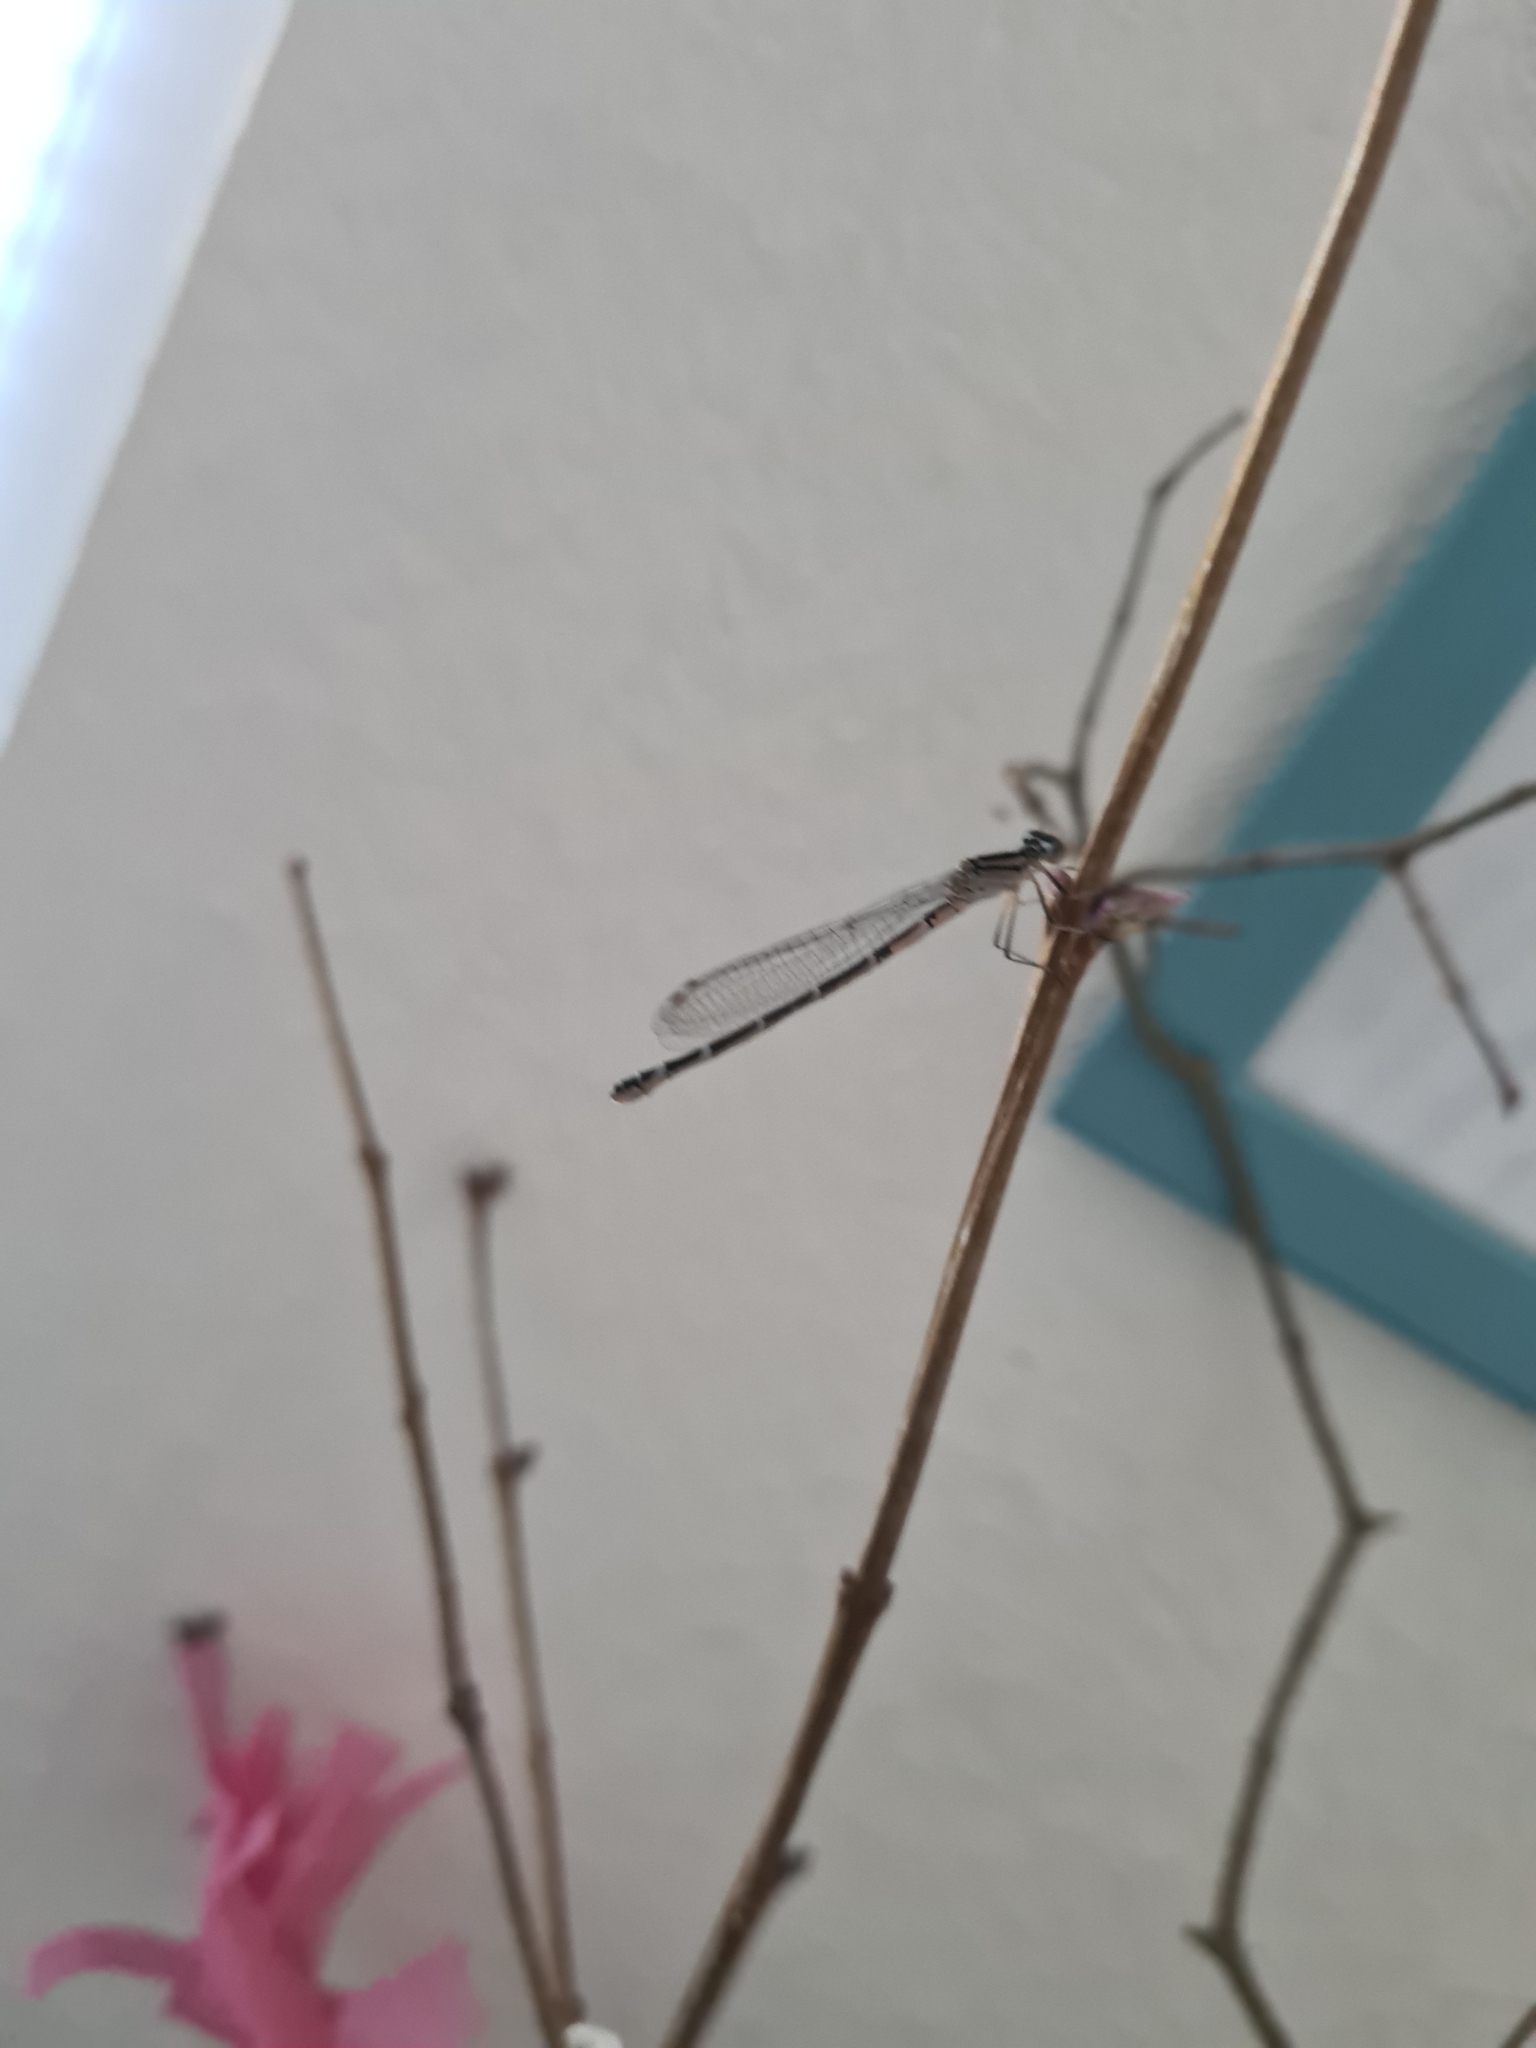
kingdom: Animalia
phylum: Arthropoda
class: Insecta
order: Odonata
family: Coenagrionidae
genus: Enallagma
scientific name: Enallagma cyathigerum
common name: Common blue damselfly
